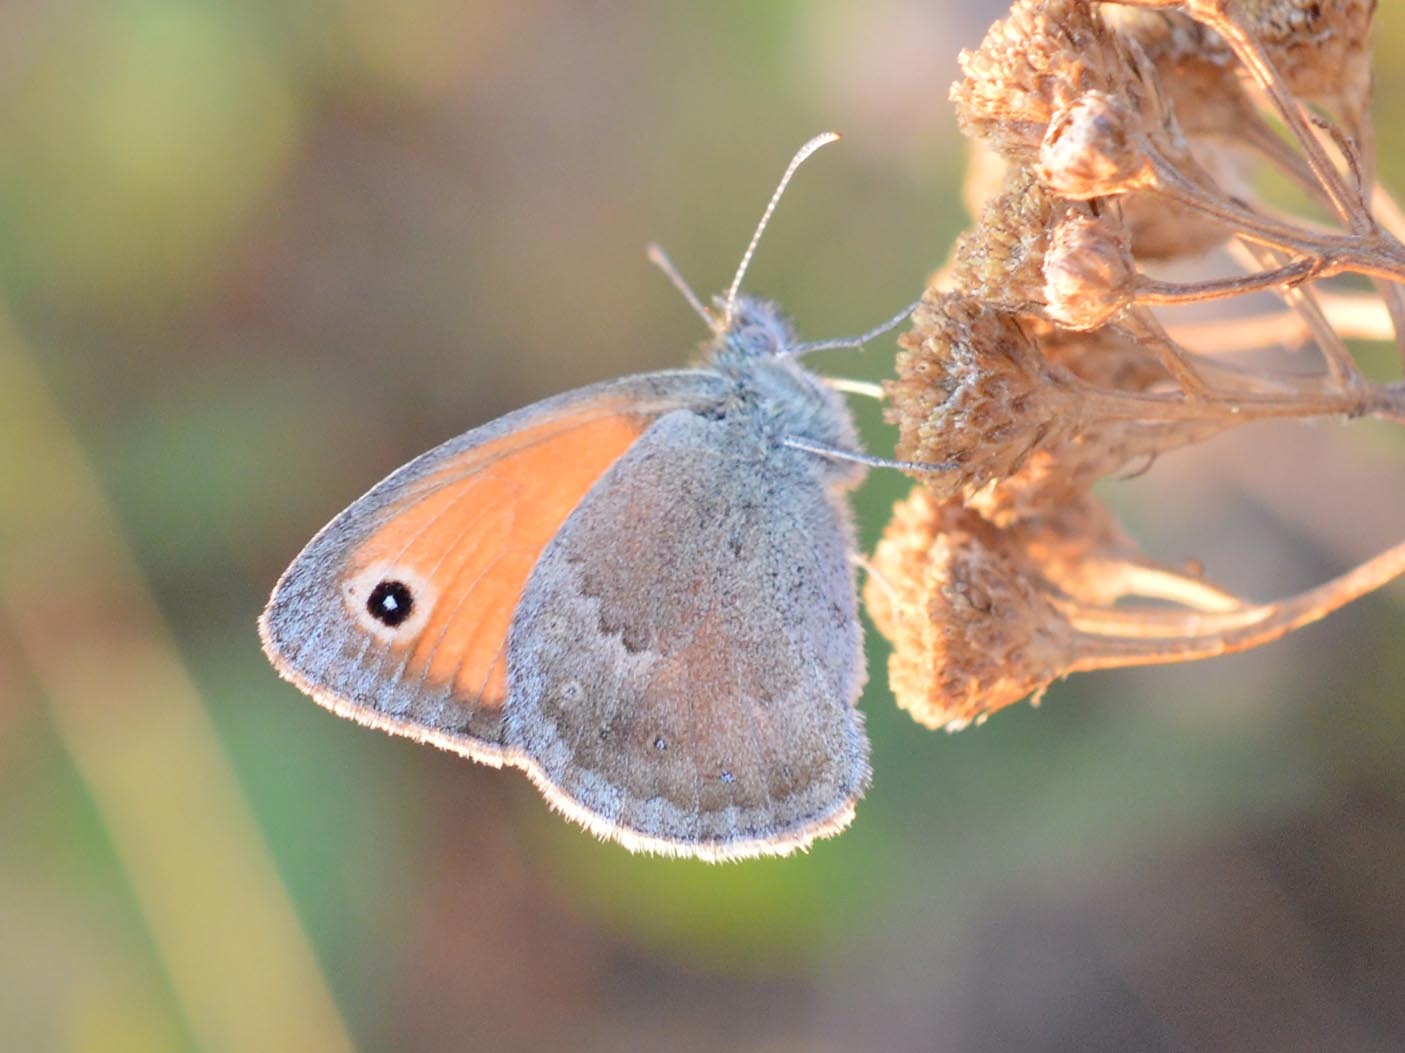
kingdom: Animalia
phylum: Arthropoda
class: Insecta
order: Lepidoptera
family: Nymphalidae
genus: Coenonympha
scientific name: Coenonympha pamphilus
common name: Small heath
